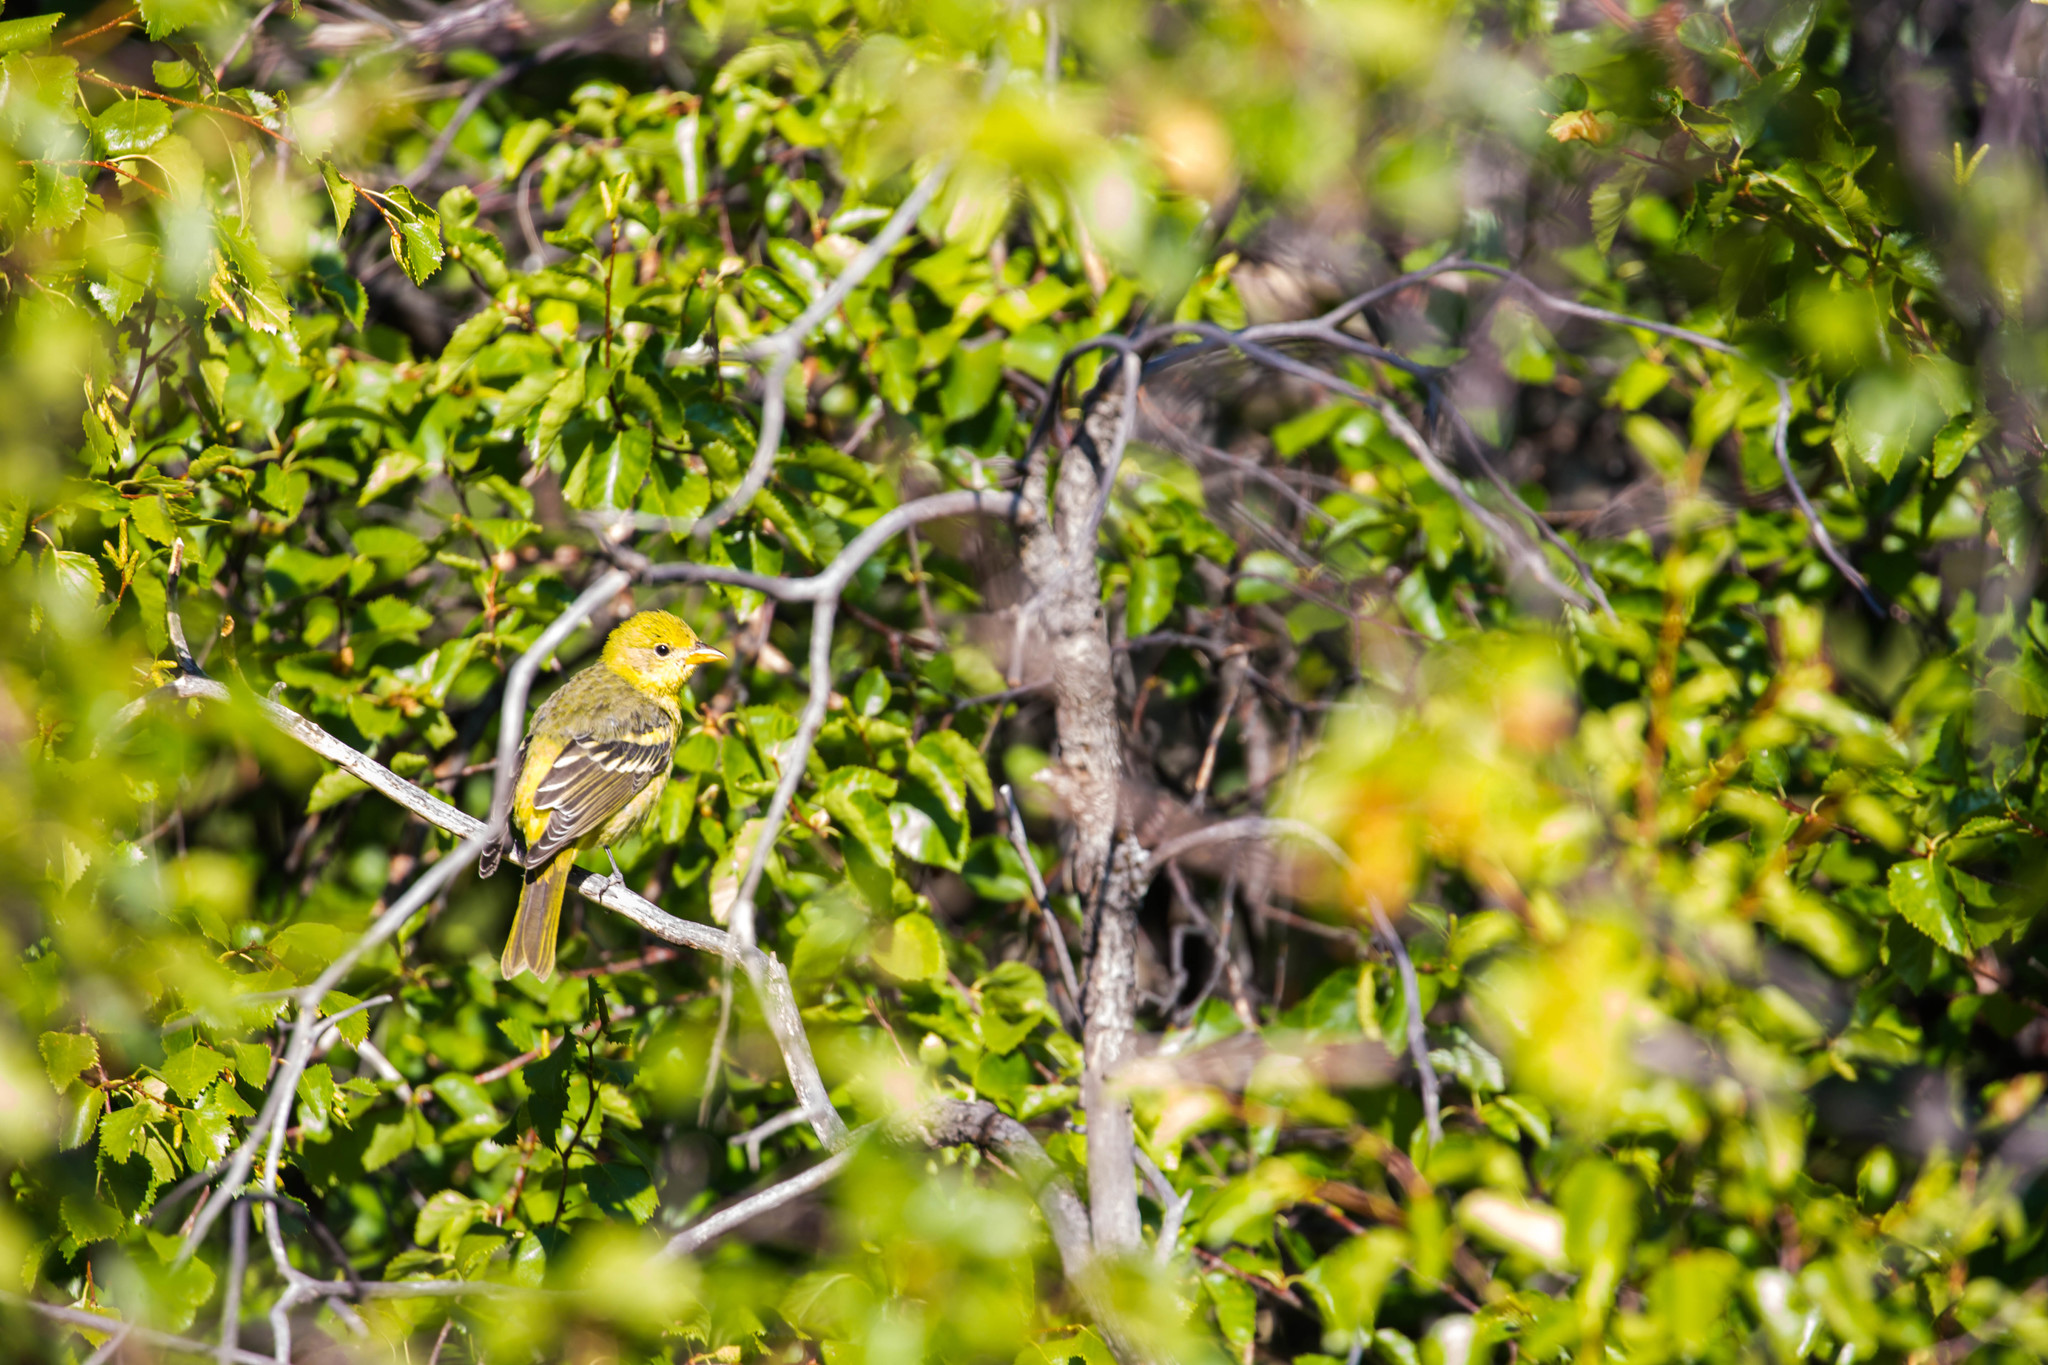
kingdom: Animalia
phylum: Chordata
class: Aves
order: Passeriformes
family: Cardinalidae
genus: Piranga
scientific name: Piranga ludoviciana
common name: Western tanager
